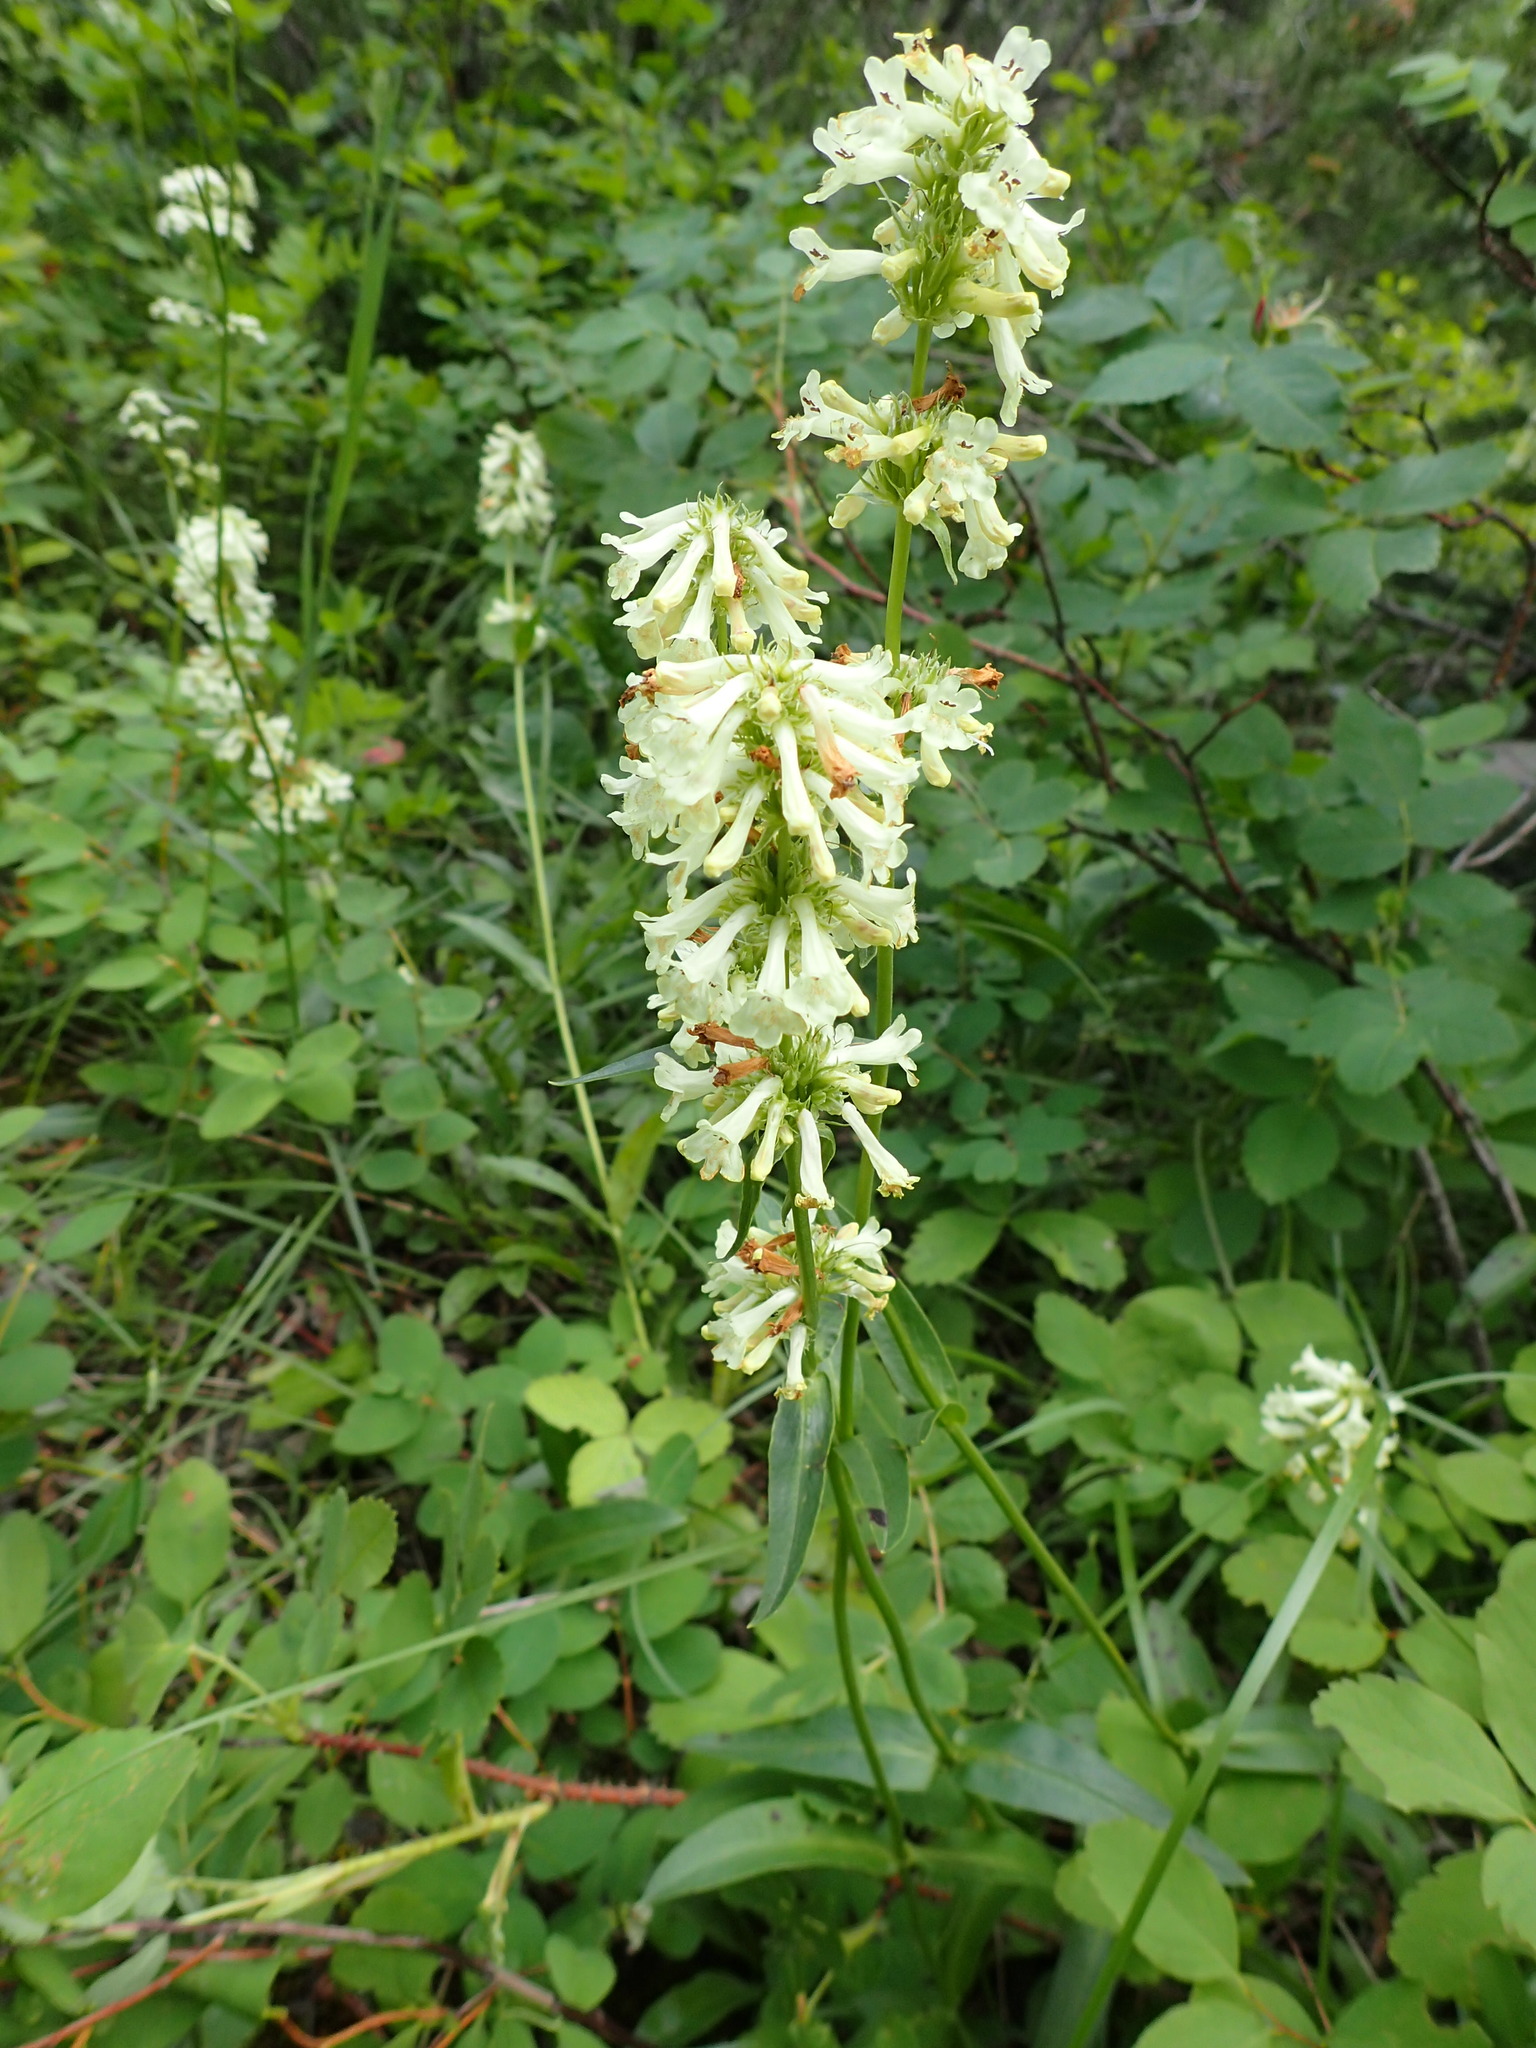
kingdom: Plantae
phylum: Tracheophyta
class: Magnoliopsida
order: Lamiales
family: Plantaginaceae
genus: Penstemon
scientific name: Penstemon confertus
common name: Lesser yellow beardtongue
